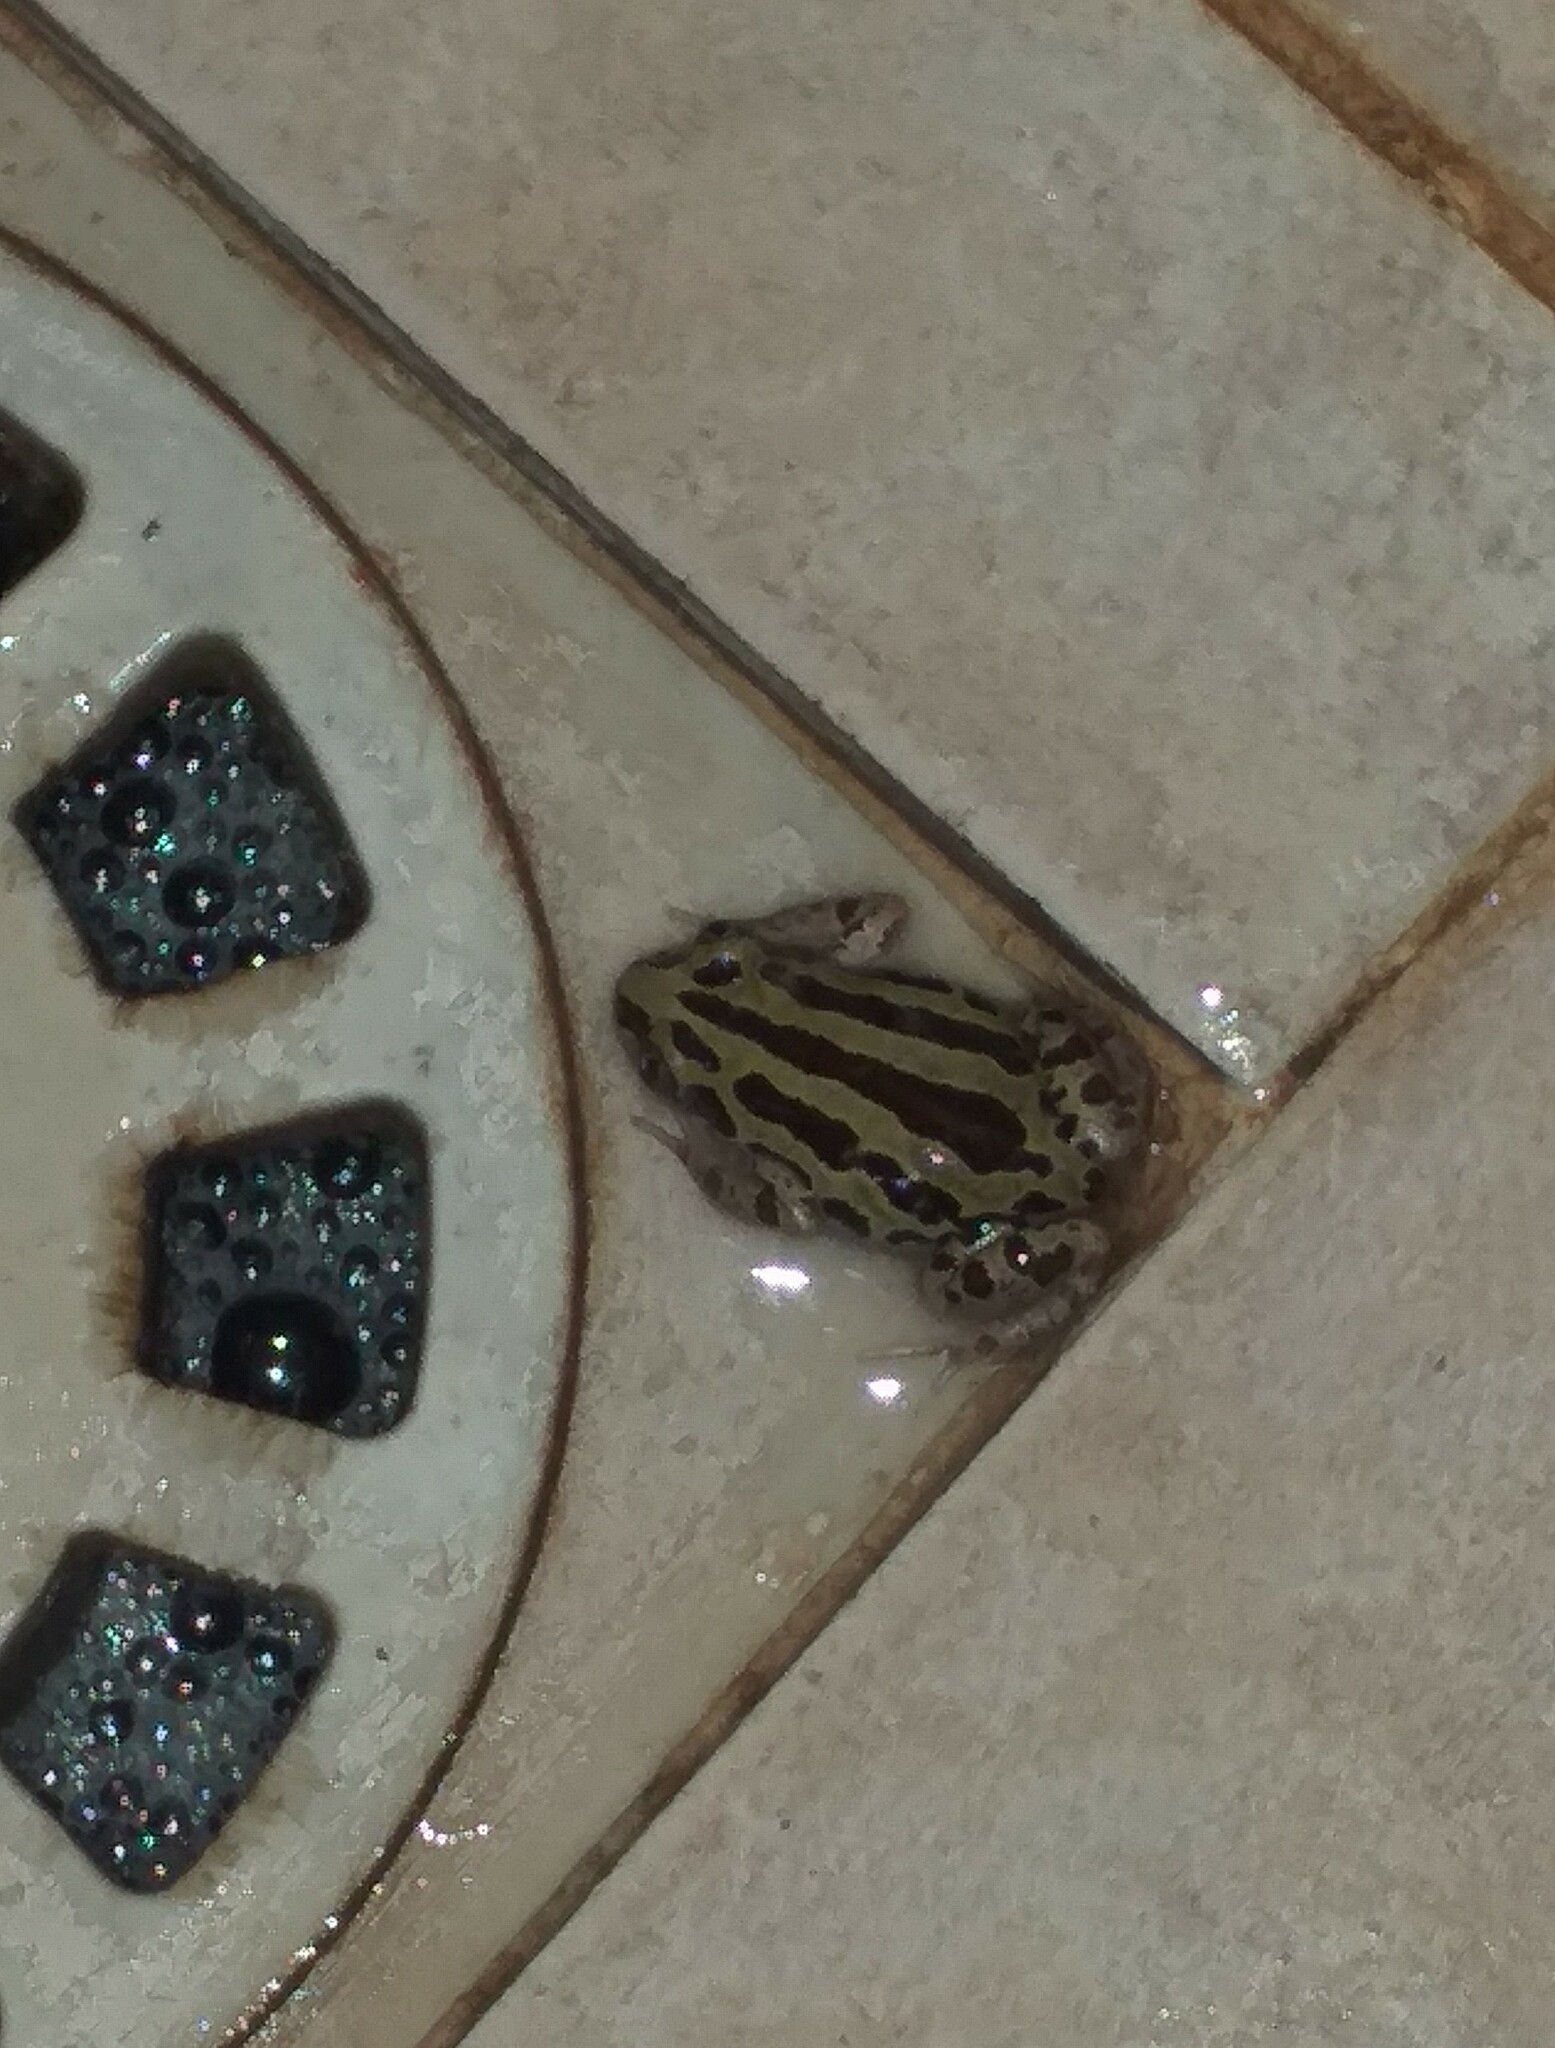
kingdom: Animalia
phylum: Chordata
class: Amphibia
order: Anura
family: Hyperoliidae
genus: Kassina
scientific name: Kassina senegalensis
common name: Senegal land frog
